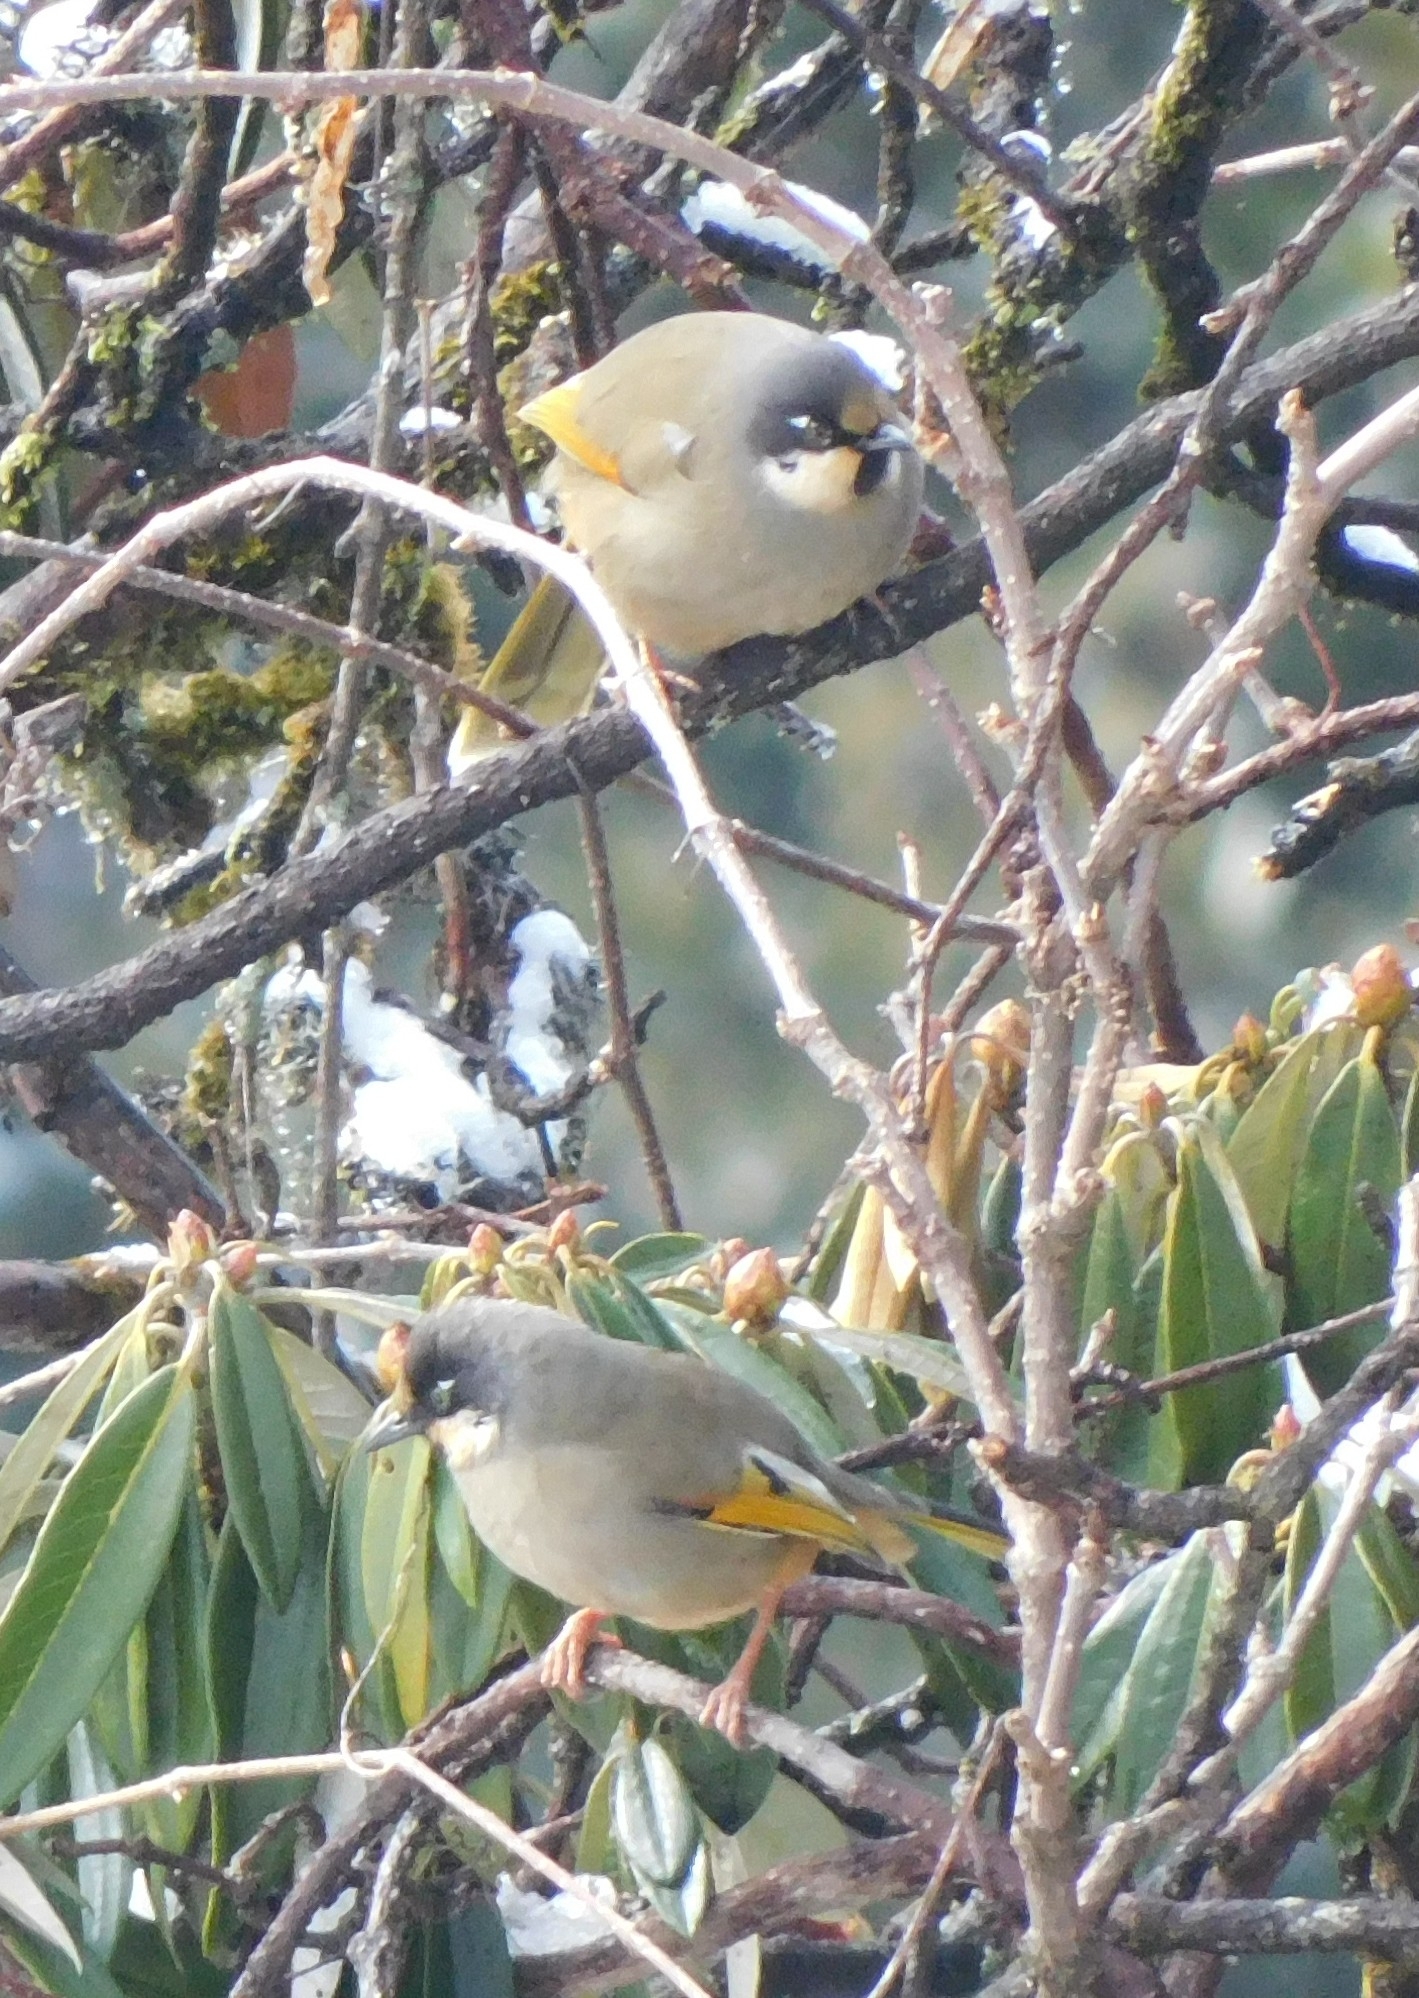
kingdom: Animalia
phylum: Chordata
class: Aves
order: Passeriformes
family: Leiothrichidae
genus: Trochalopteron
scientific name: Trochalopteron variegatum
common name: Variegated laughingthrush
